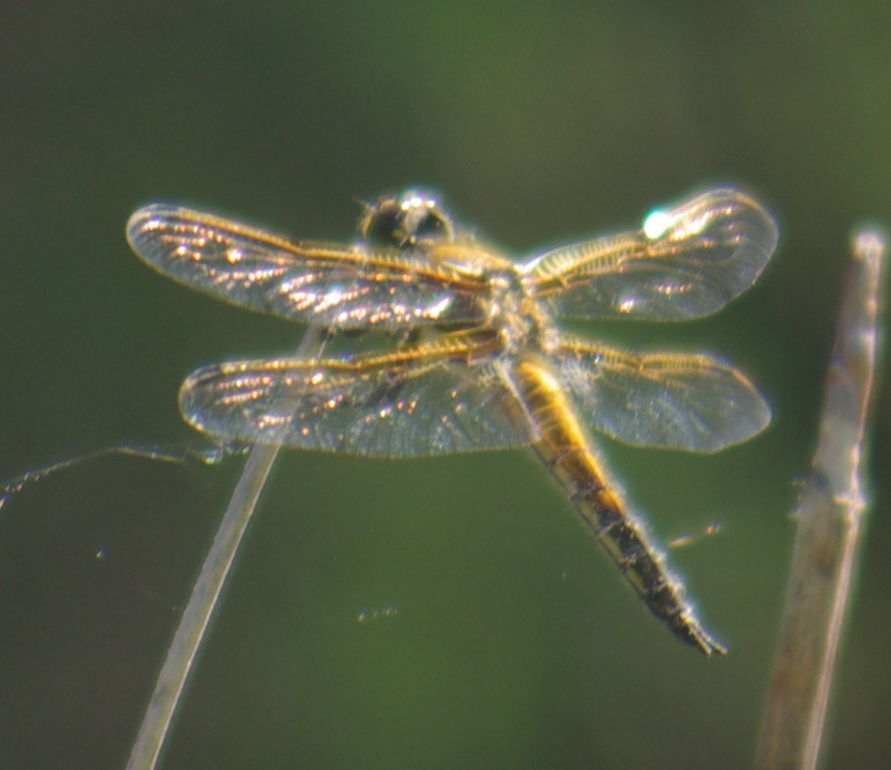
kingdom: Animalia
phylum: Arthropoda
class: Insecta
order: Odonata
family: Libellulidae
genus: Libellula
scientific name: Libellula quadrimaculata
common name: Four-spotted chaser
